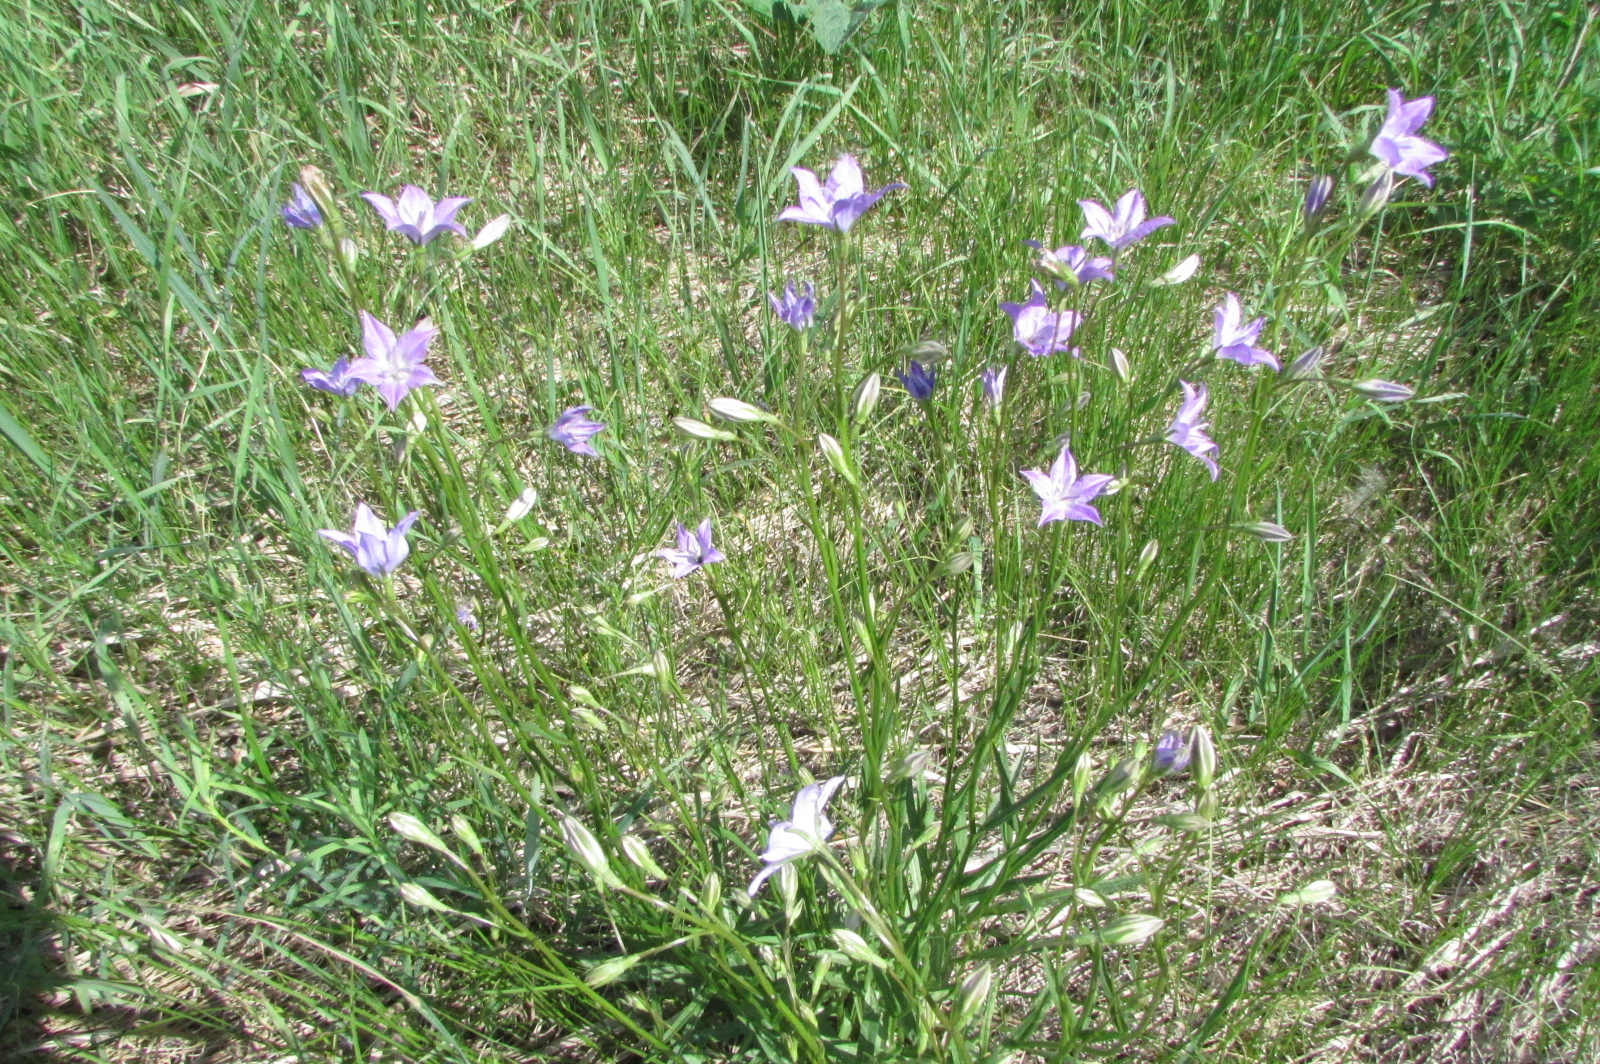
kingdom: Plantae
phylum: Tracheophyta
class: Magnoliopsida
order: Asterales
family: Campanulaceae
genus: Campanula
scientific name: Campanula stevenii
